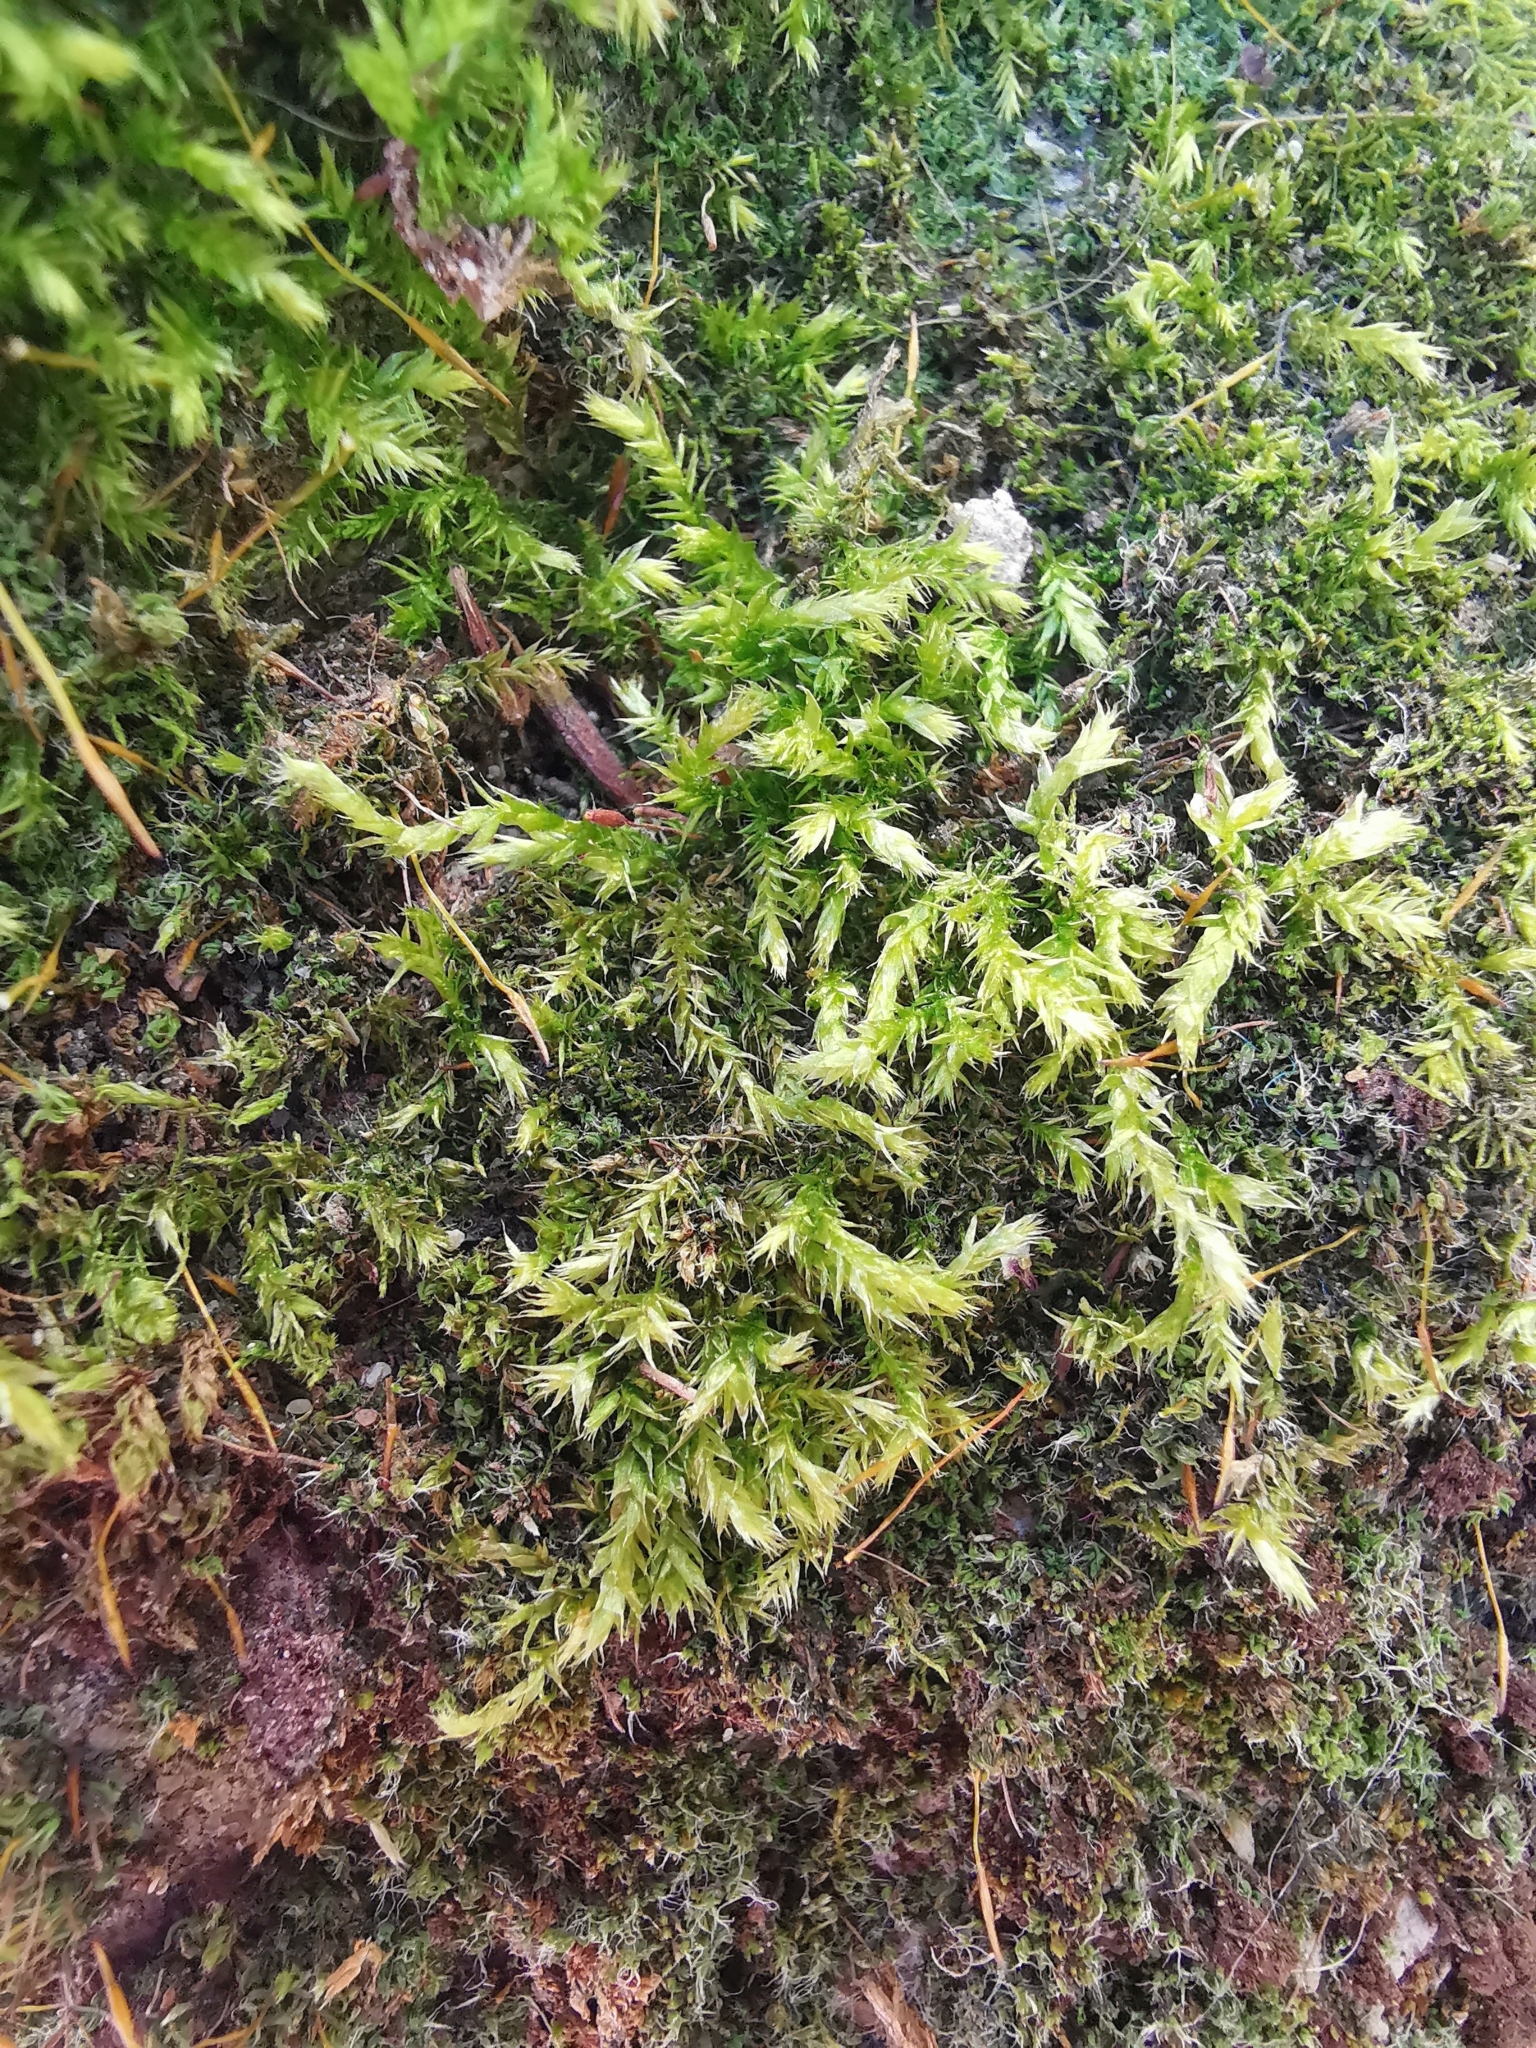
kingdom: Plantae
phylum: Bryophyta
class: Bryopsida
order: Hypnales
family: Brachytheciaceae
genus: Brachythecium
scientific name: Brachythecium rutabulum
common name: Rough-stalked feather-moss
